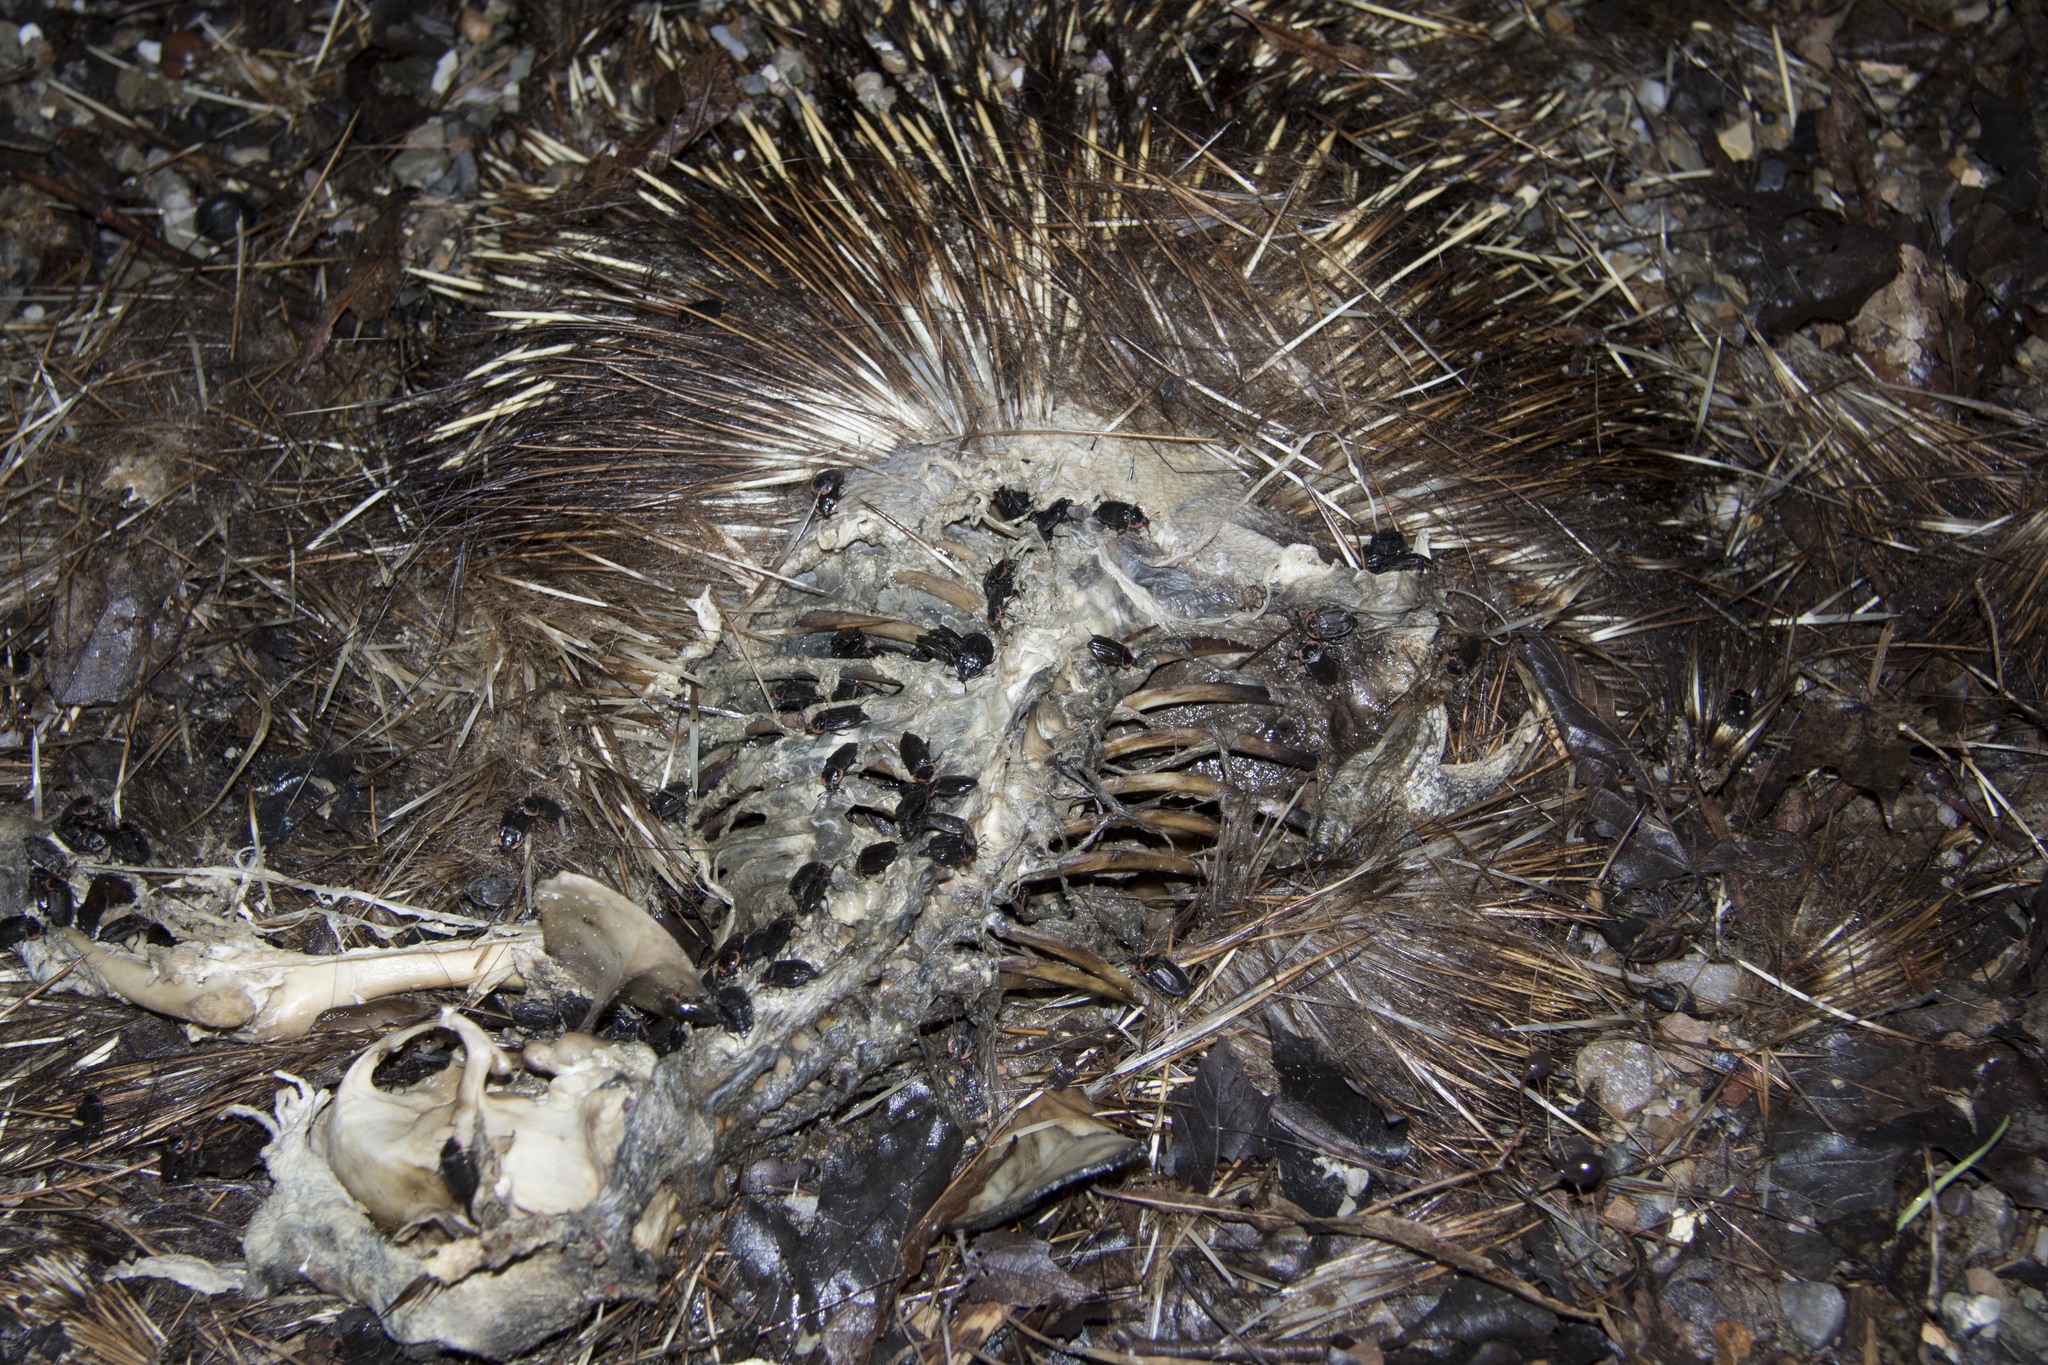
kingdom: Animalia
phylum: Chordata
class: Mammalia
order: Rodentia
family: Erethizontidae
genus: Erethizon
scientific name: Erethizon dorsatus
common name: North american porcupine
